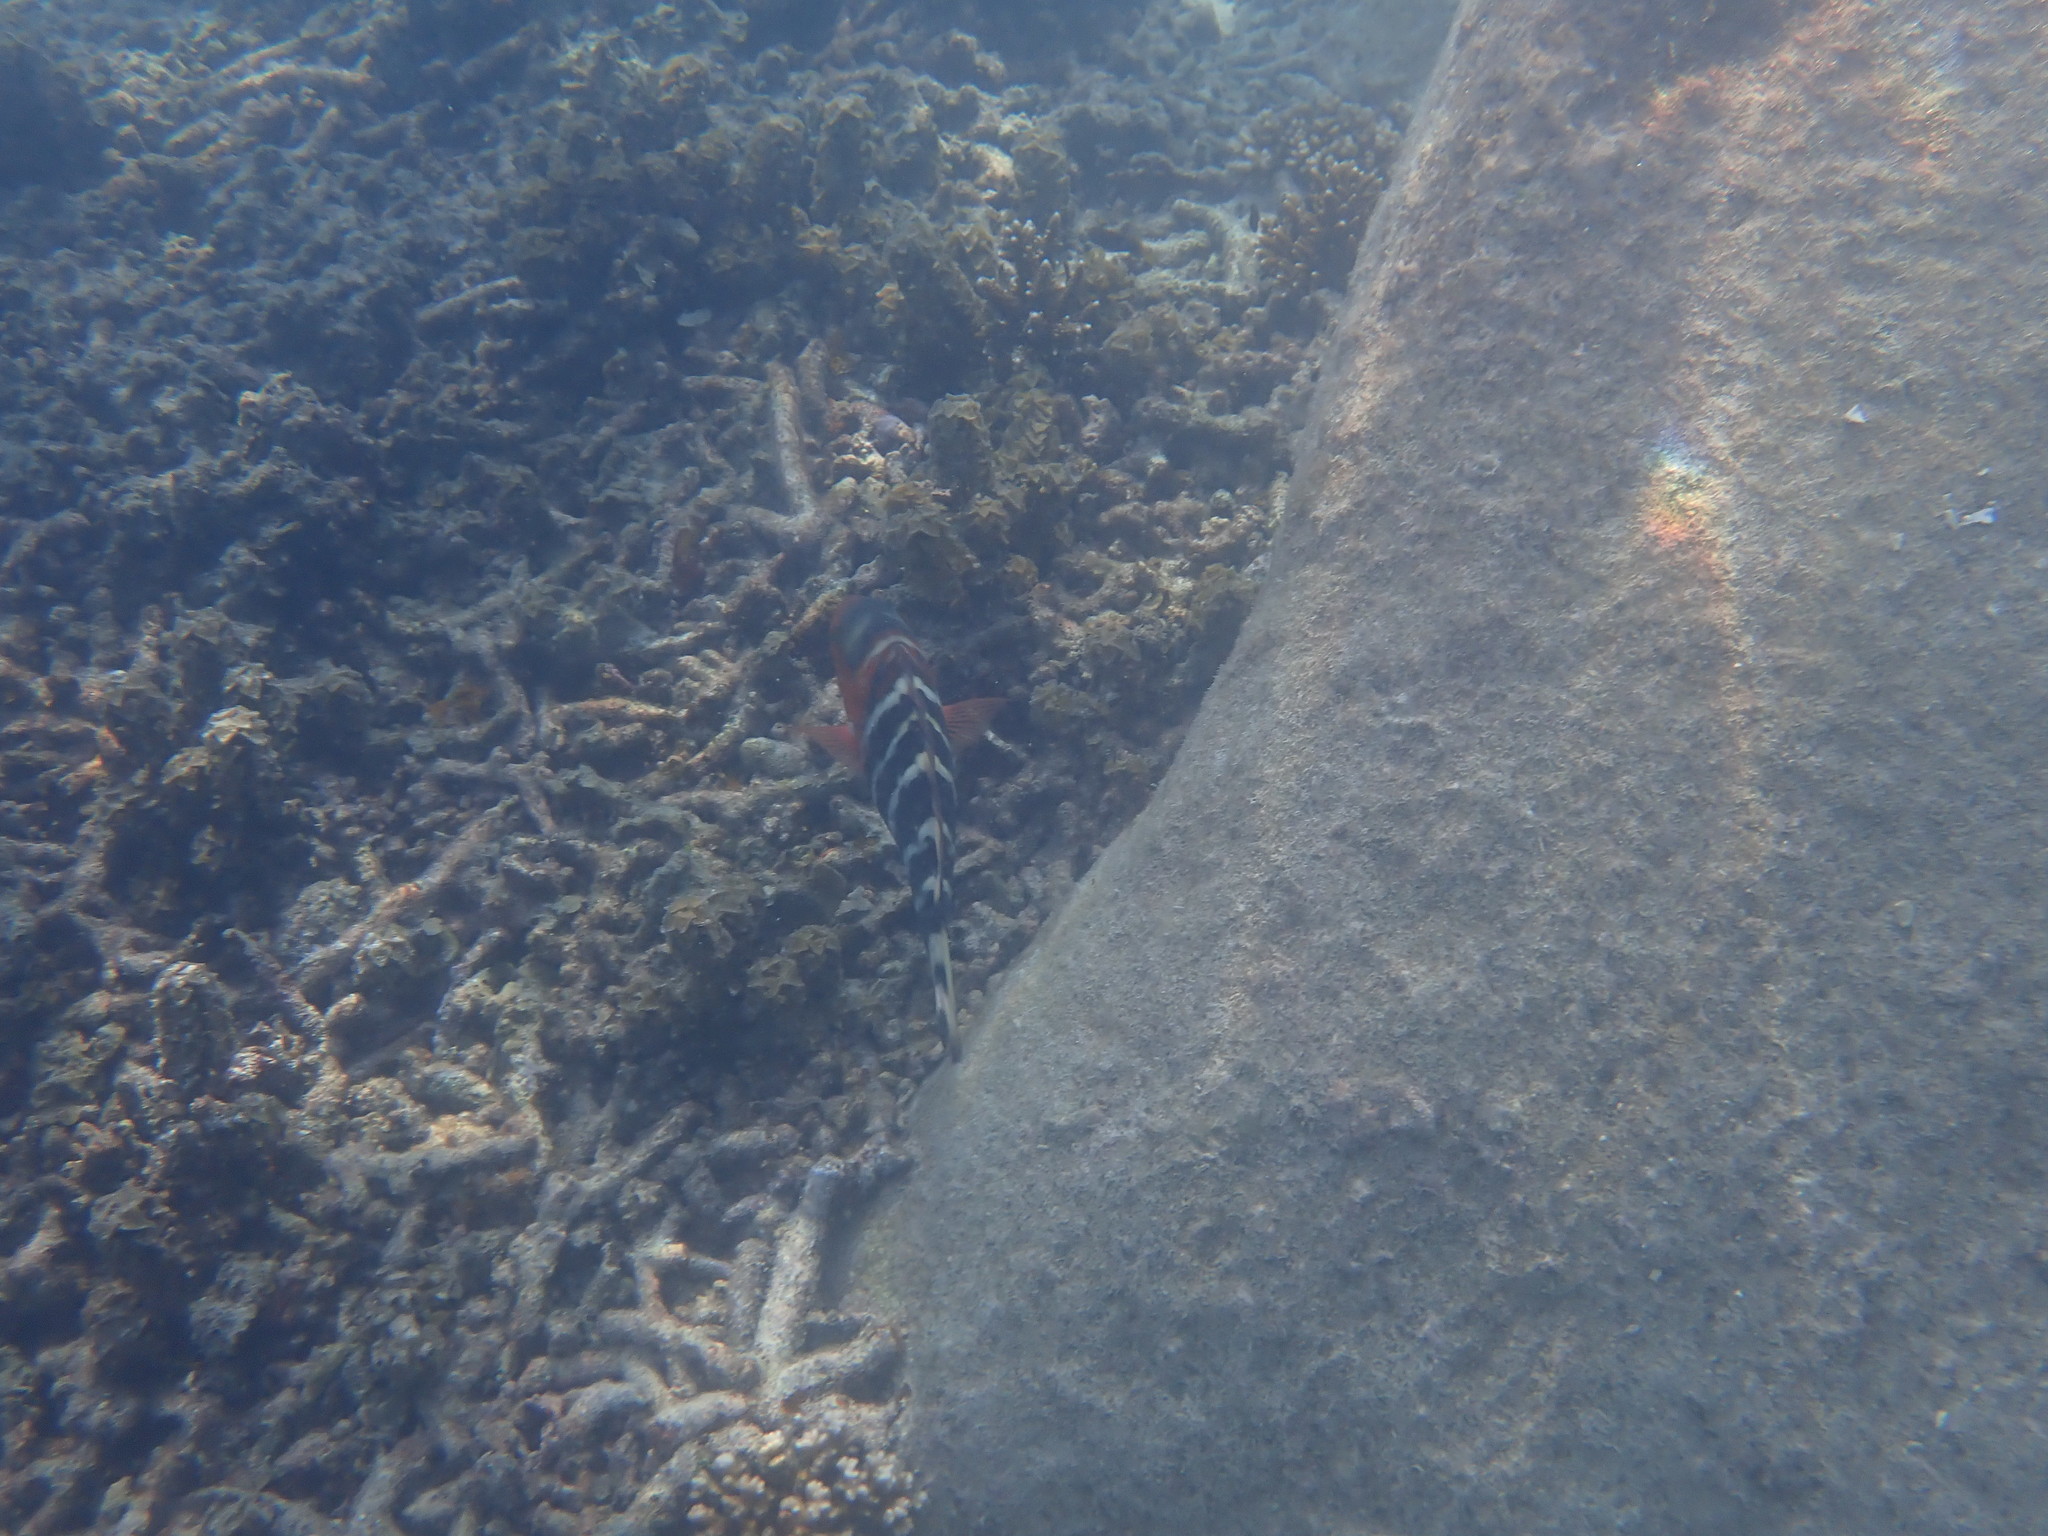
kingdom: Animalia
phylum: Chordata
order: Perciformes
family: Labridae
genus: Cheilinus
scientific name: Cheilinus fasciatus
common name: Red-breasted wrasse
